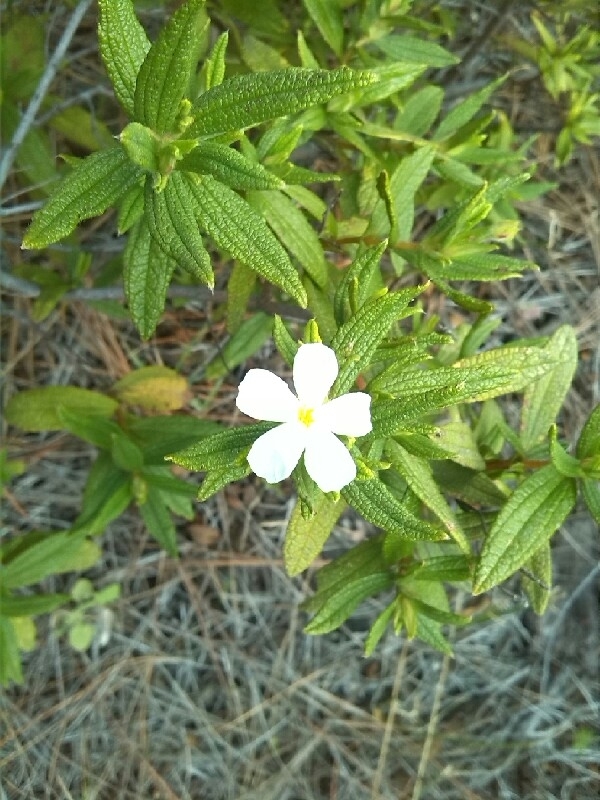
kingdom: Plantae
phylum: Tracheophyta
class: Magnoliopsida
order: Malvales
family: Cistaceae
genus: Cistus
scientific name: Cistus monspeliensis
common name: Montpelier cistus
